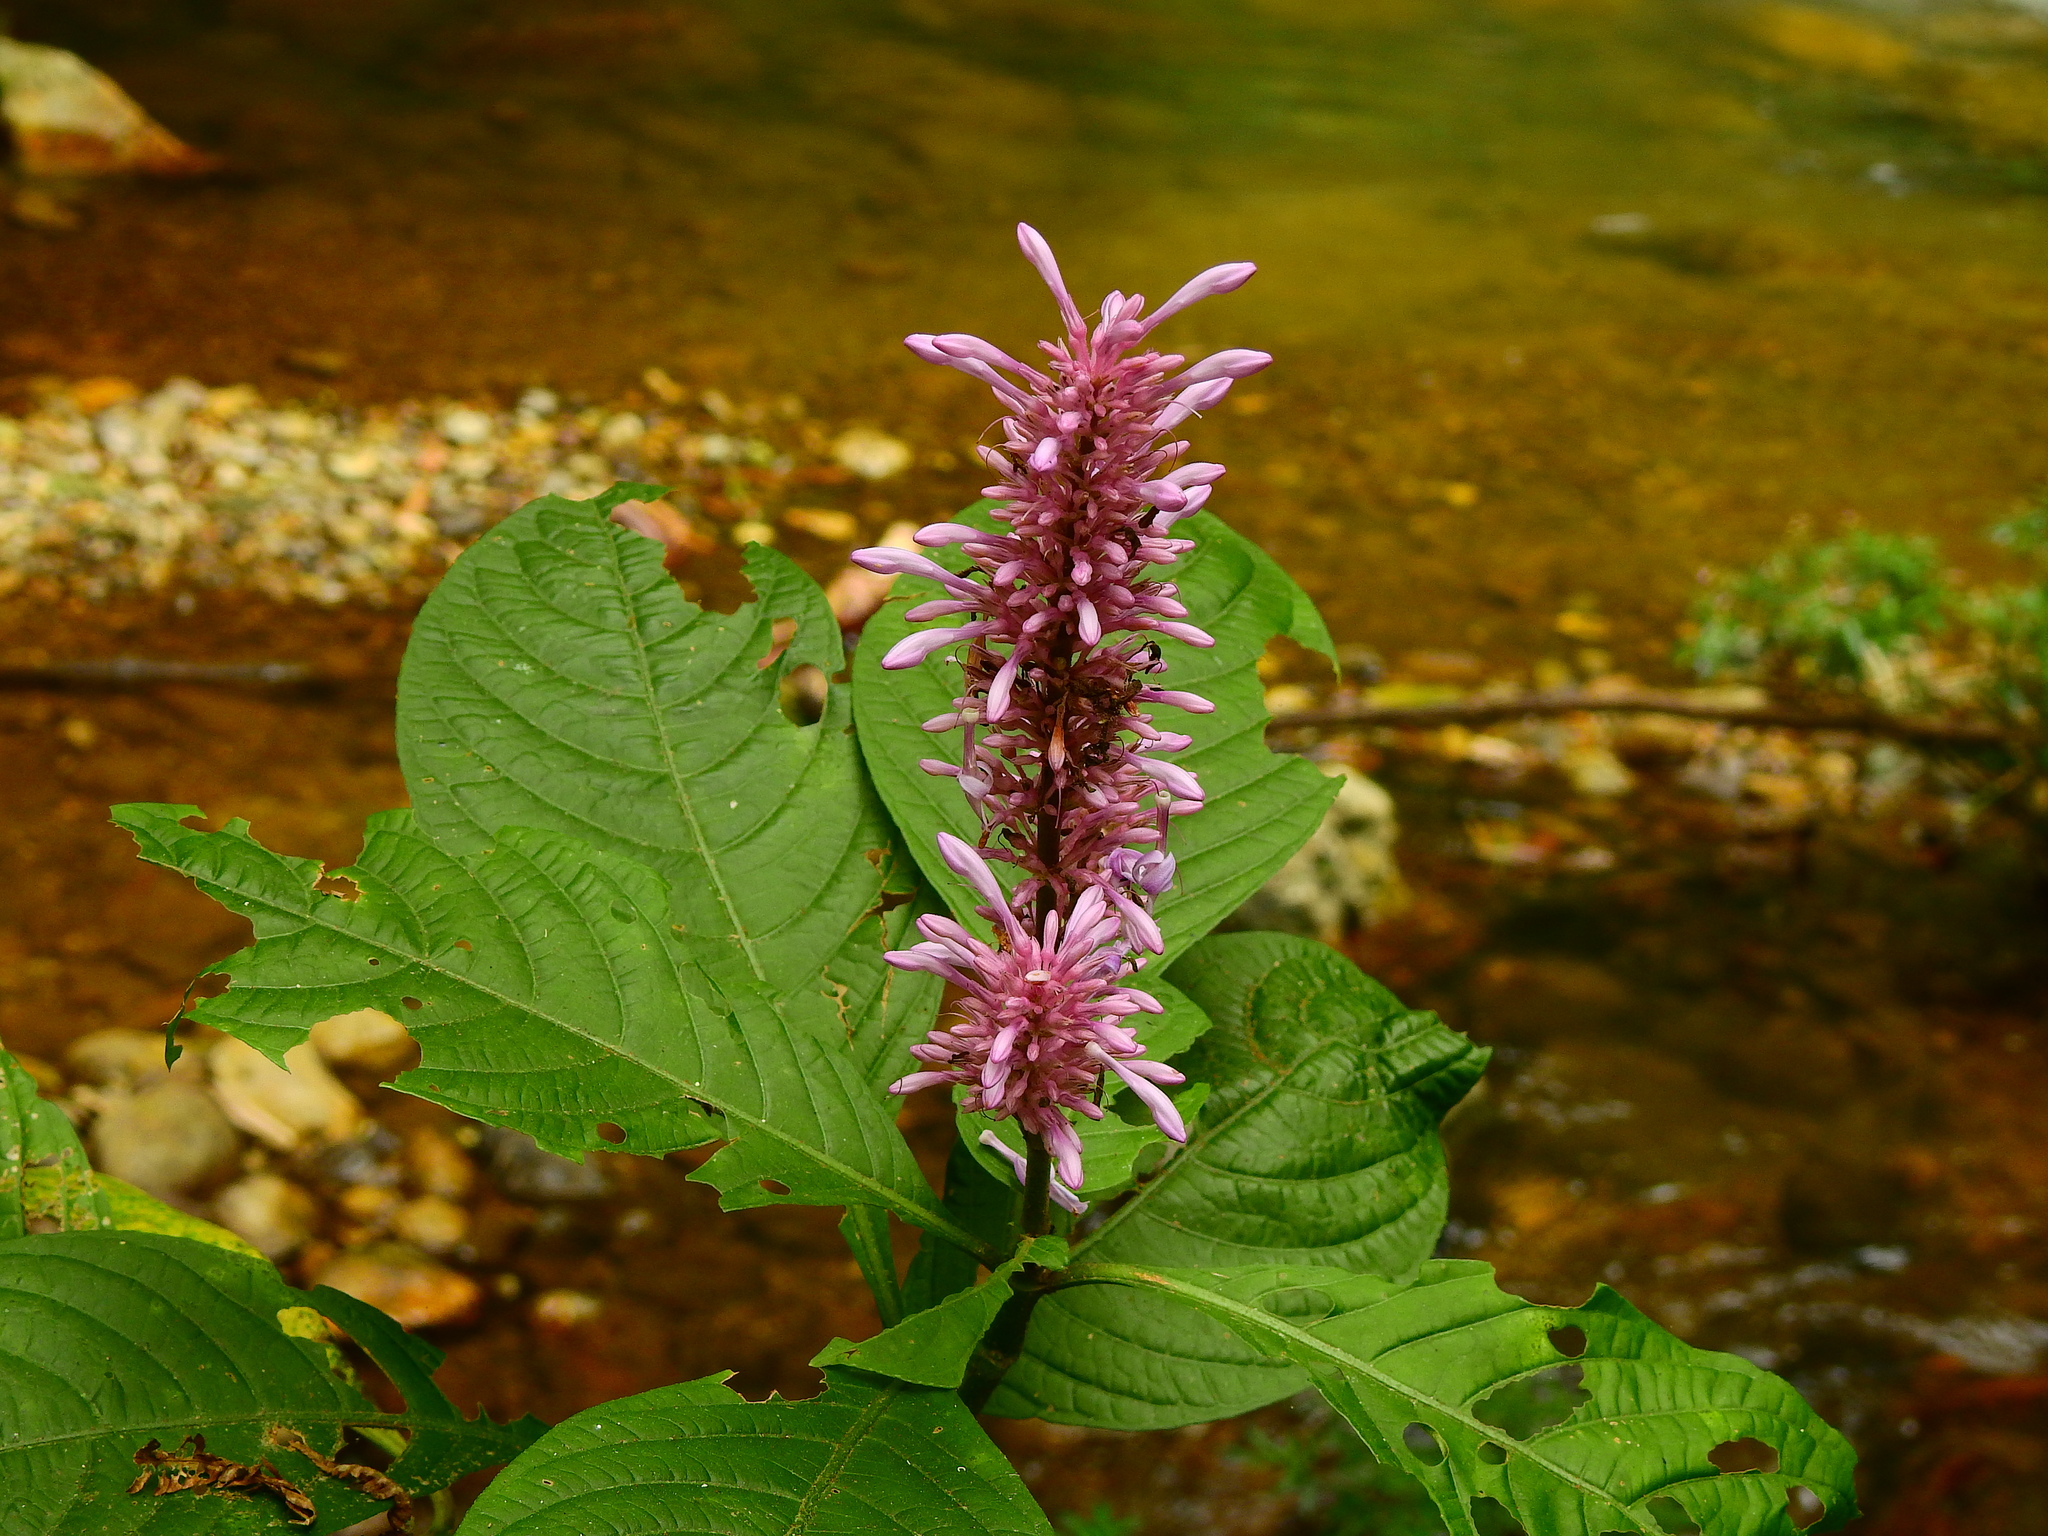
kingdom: Plantae
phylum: Tracheophyta
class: Magnoliopsida
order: Lamiales
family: Acanthaceae
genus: Odontonema
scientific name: Odontonema callistachyum
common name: Firespike
